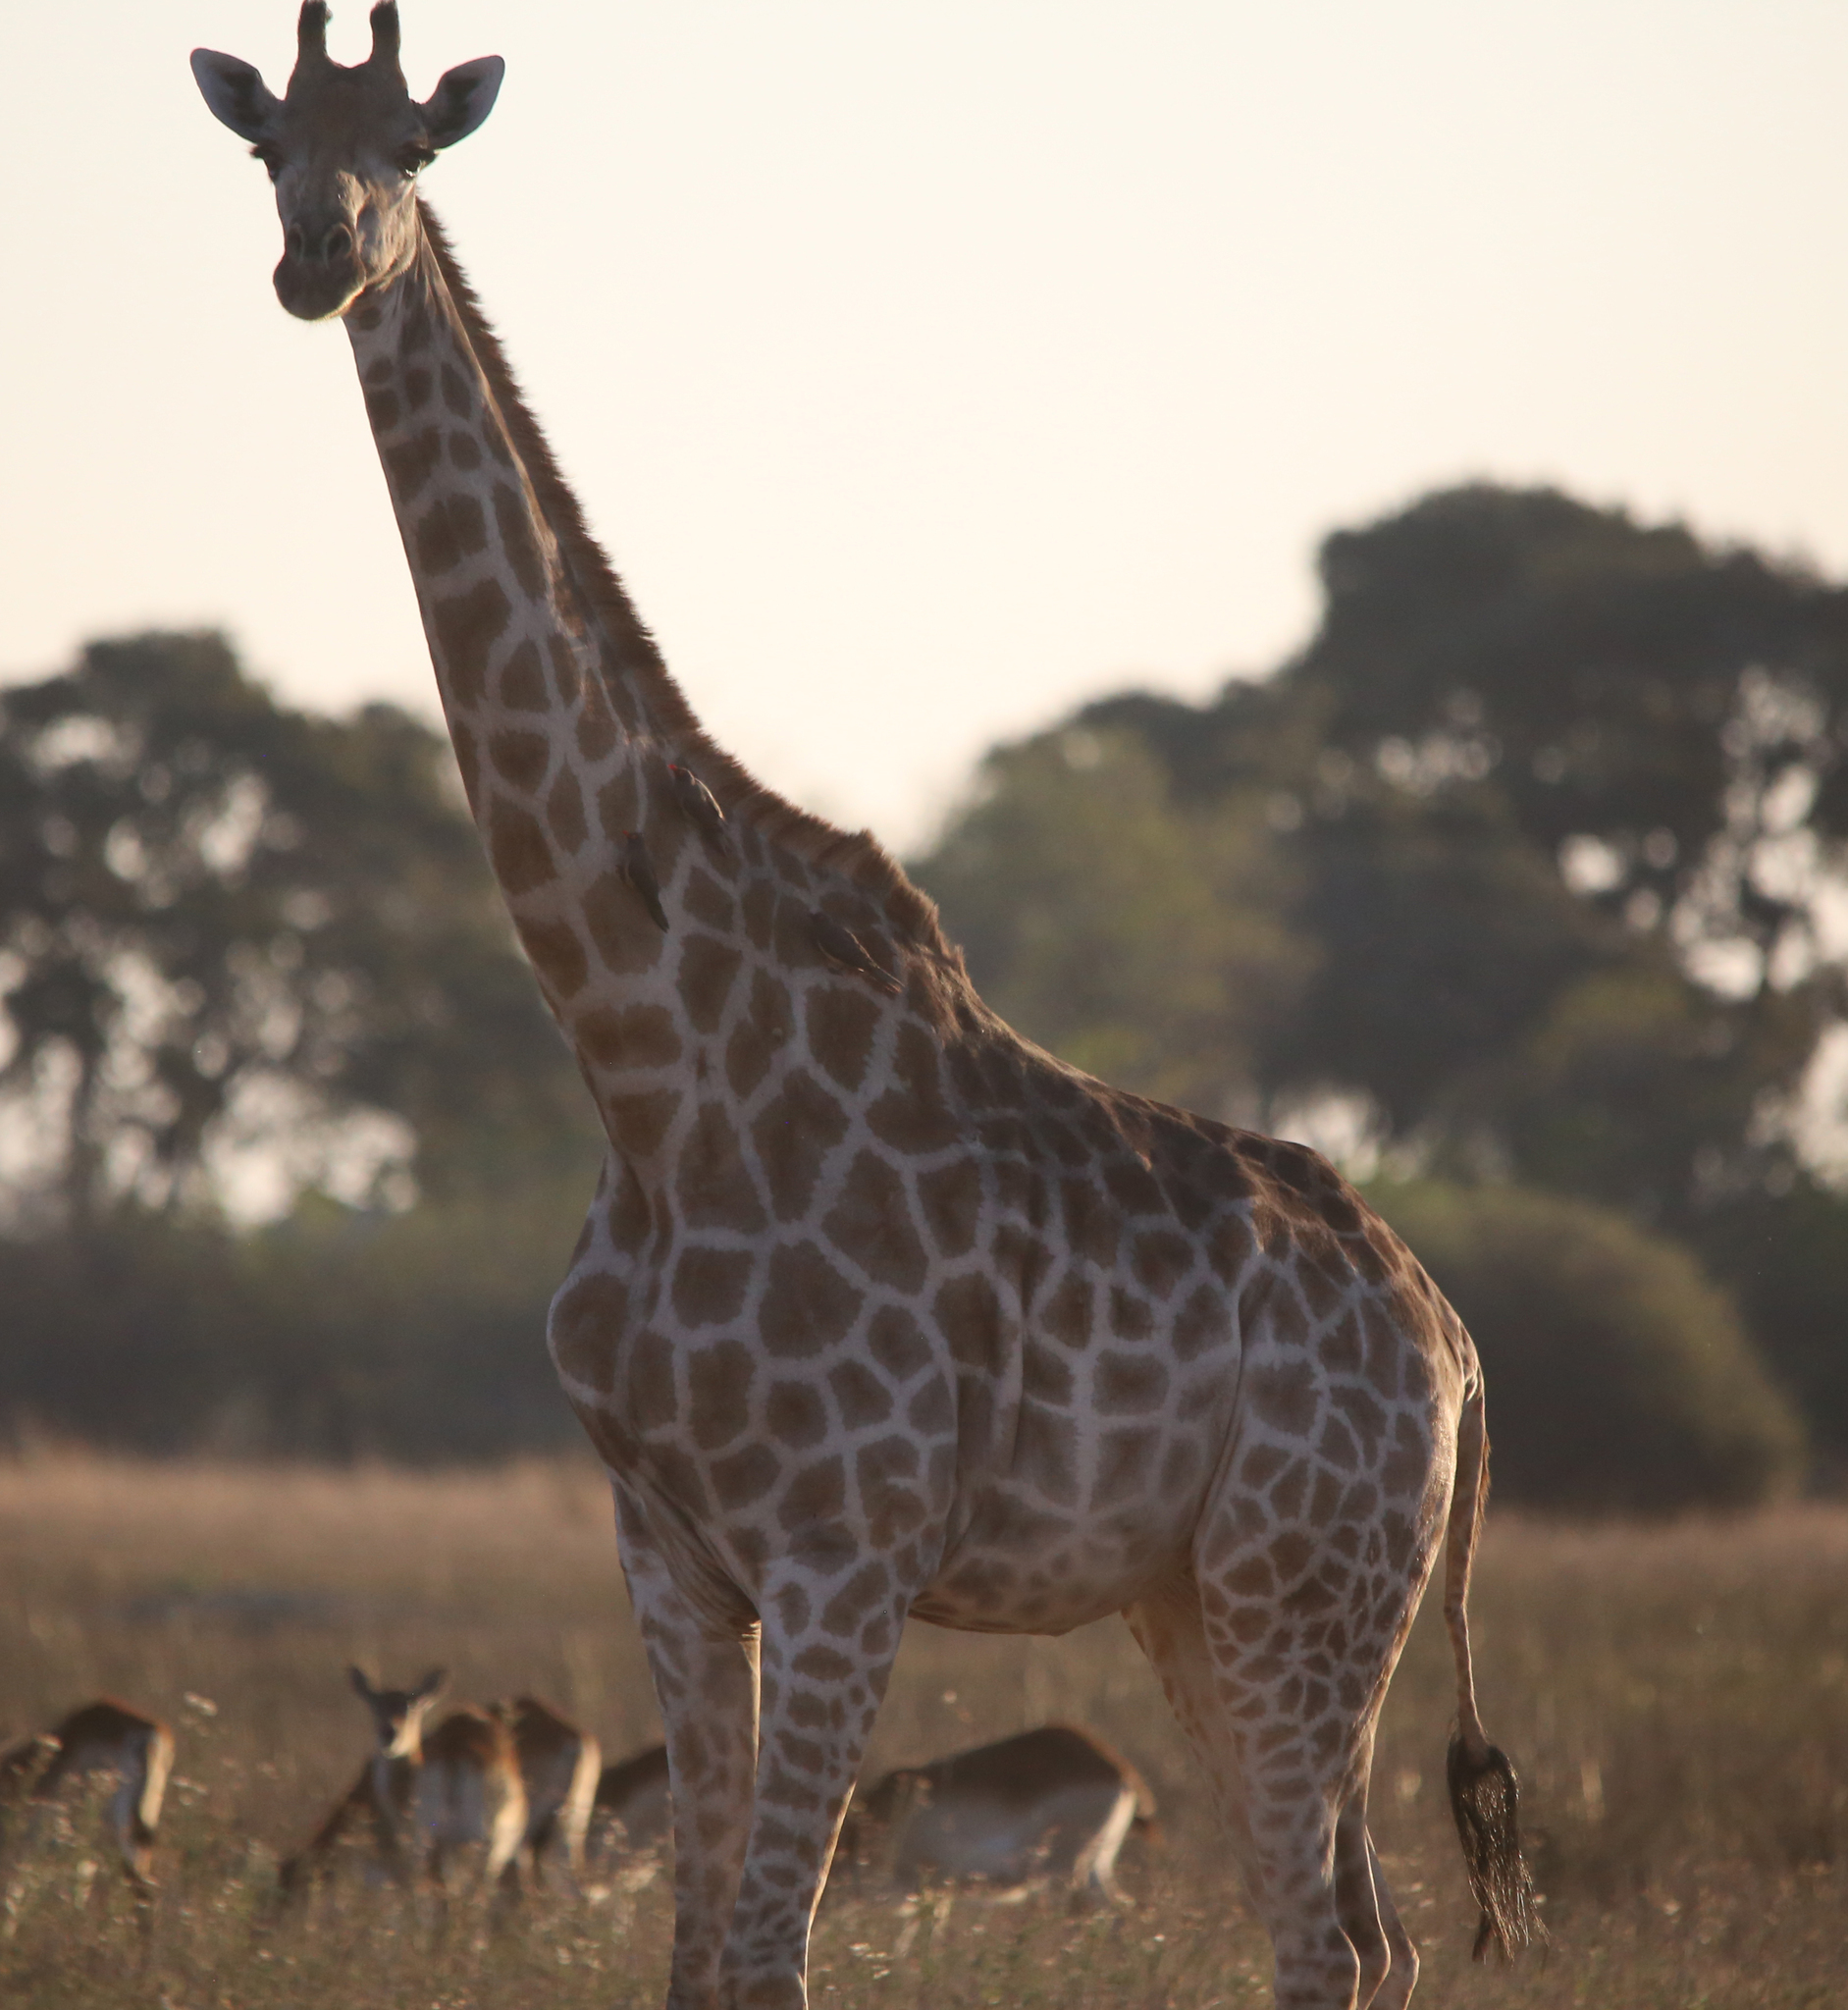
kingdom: Animalia
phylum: Chordata
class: Mammalia
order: Artiodactyla
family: Giraffidae
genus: Giraffa
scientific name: Giraffa giraffa
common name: Southern giraffe
